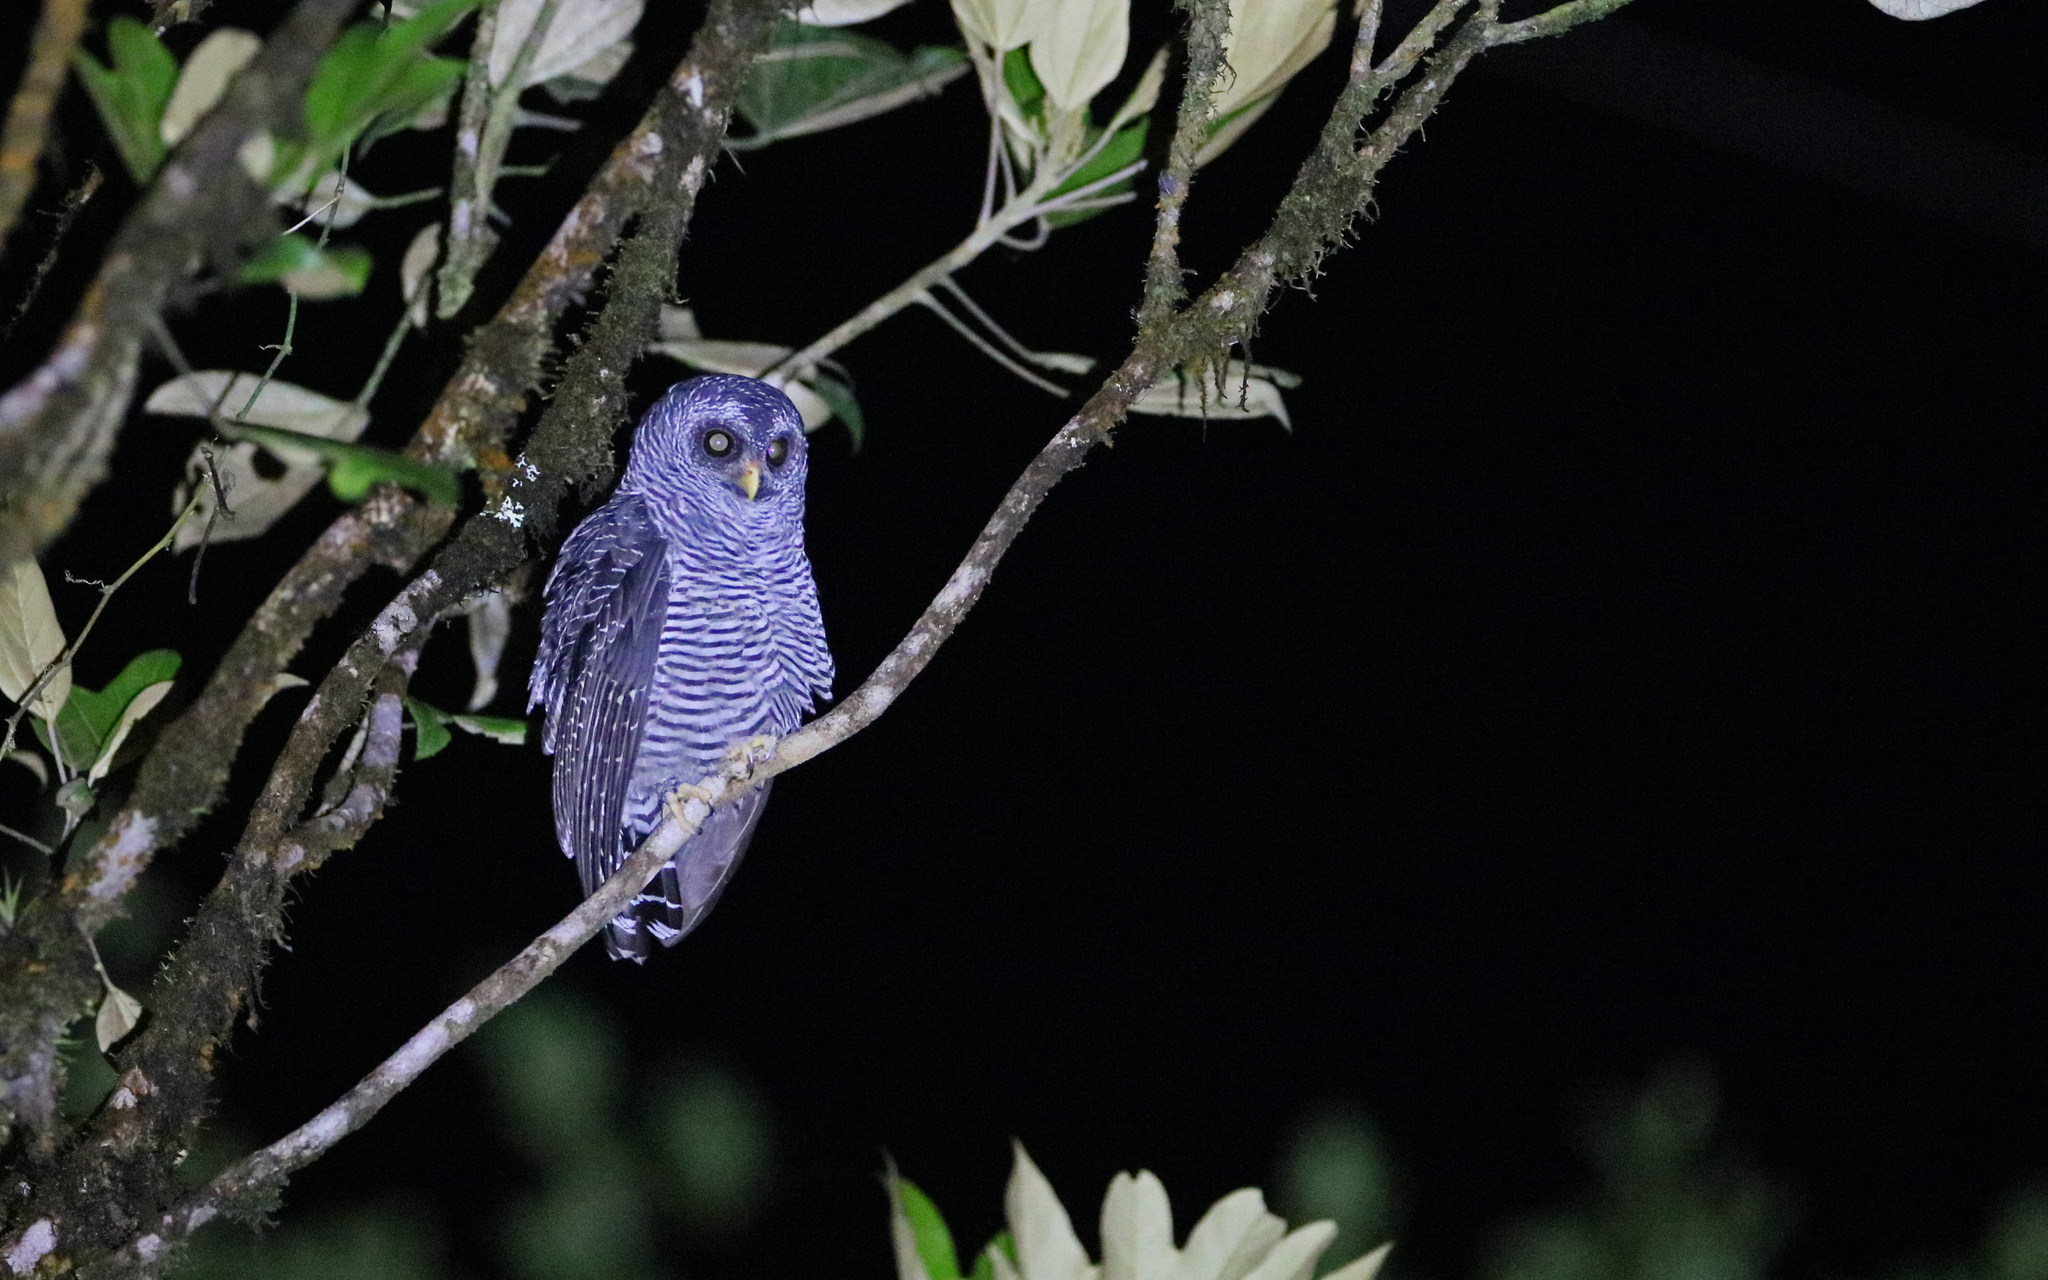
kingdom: Animalia
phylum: Chordata
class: Aves
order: Strigiformes
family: Strigidae
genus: Strix
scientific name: Strix huhula
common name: Black-banded owl
